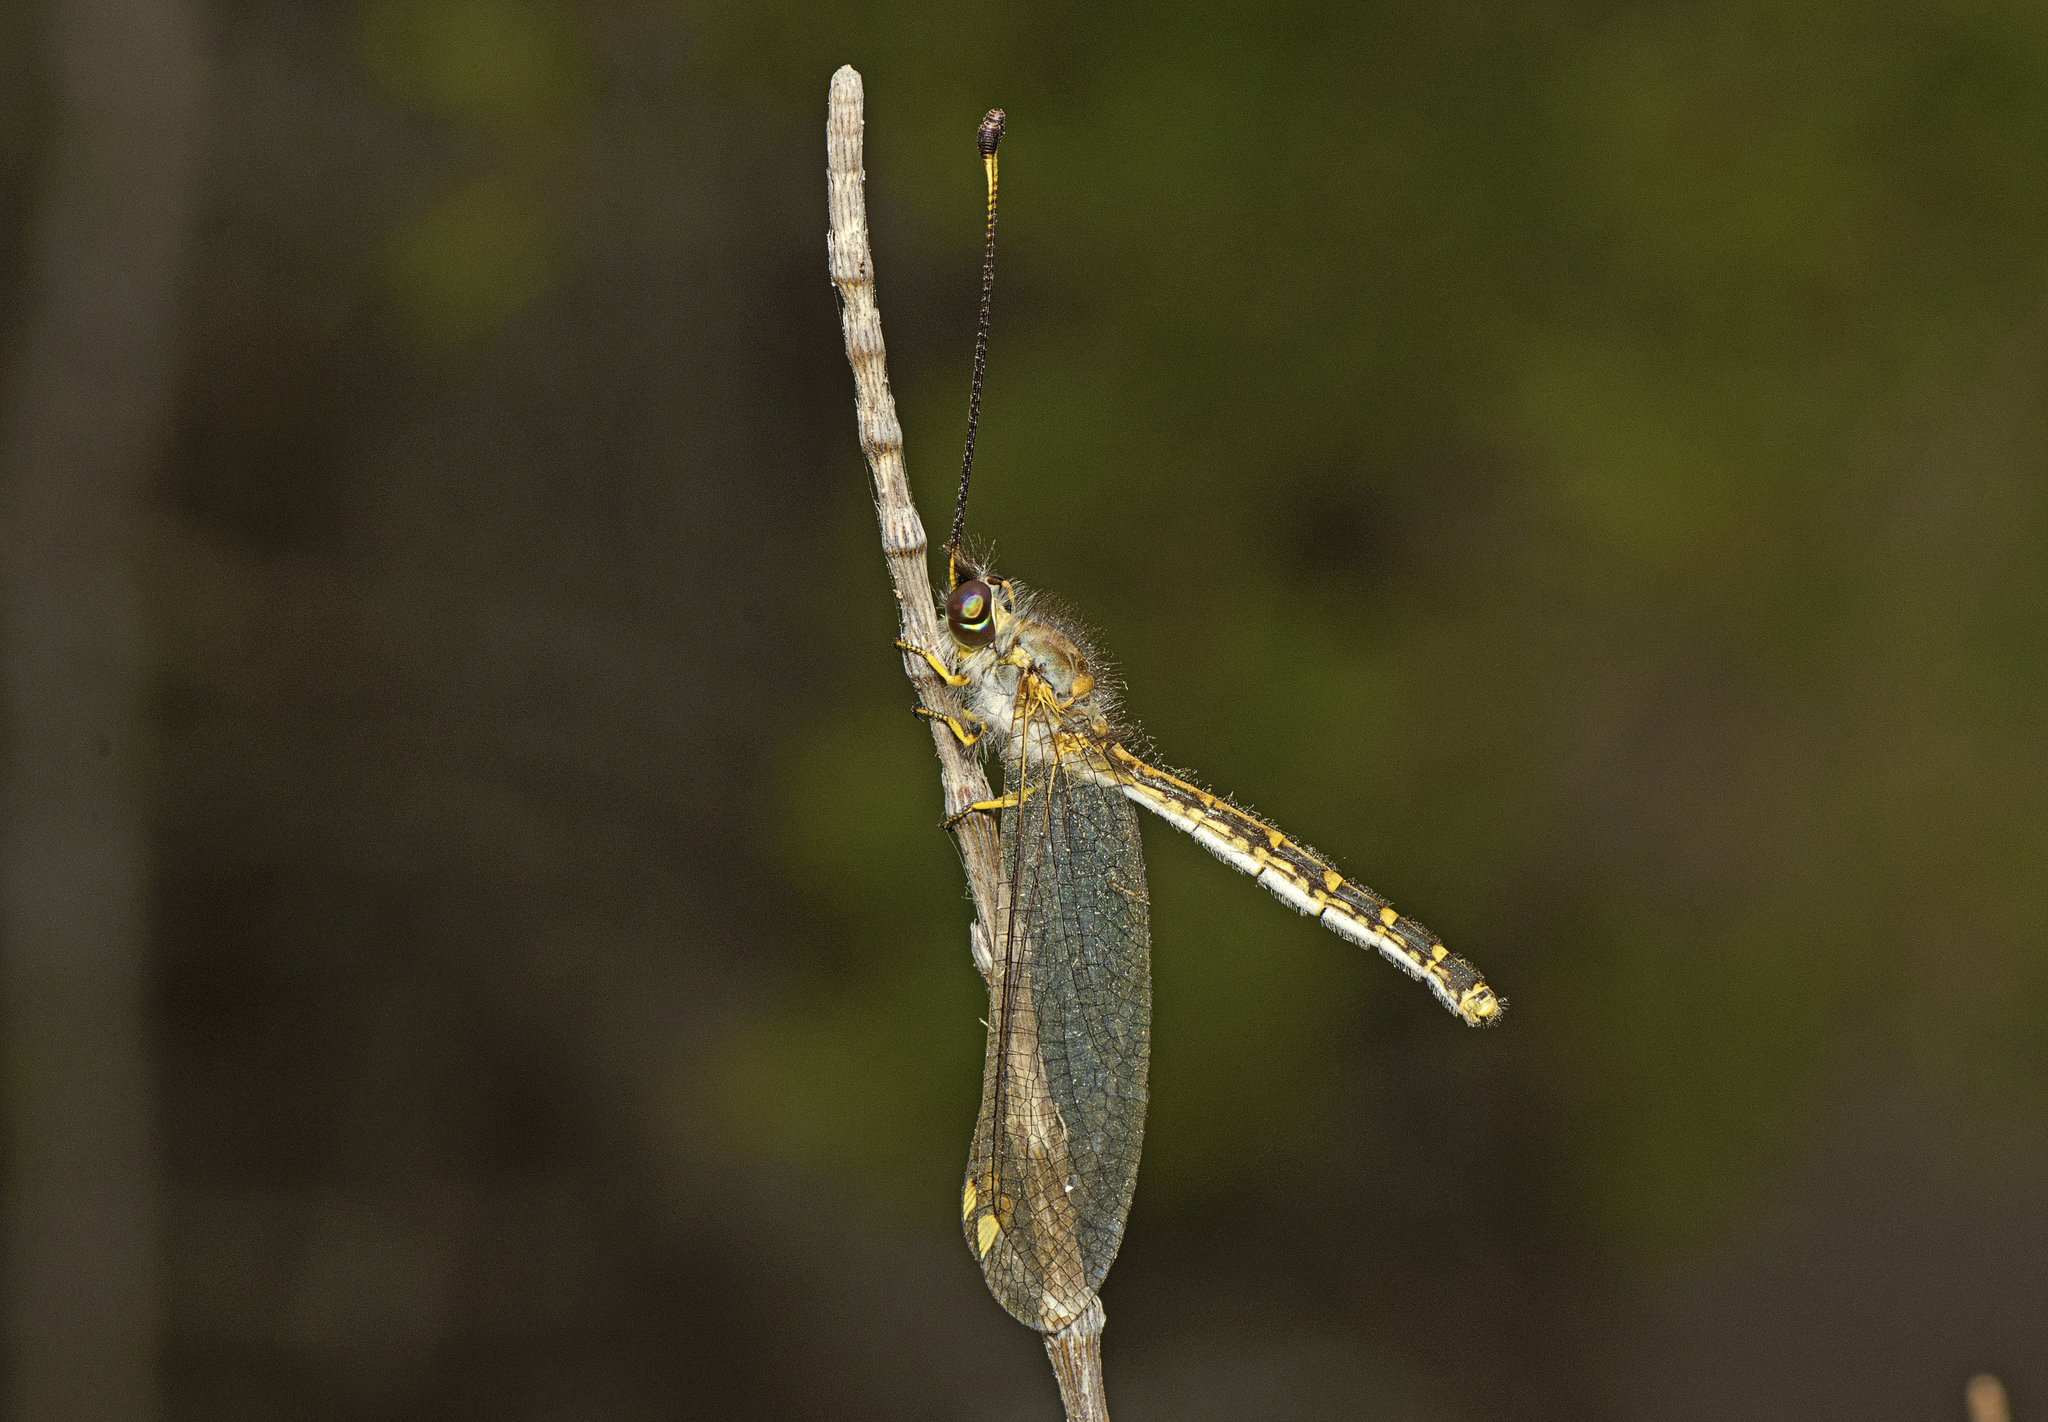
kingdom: Animalia
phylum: Arthropoda
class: Insecta
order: Neuroptera
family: Ascalaphidae
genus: Suhpalacsa
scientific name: Suhpalacsa flavipes
